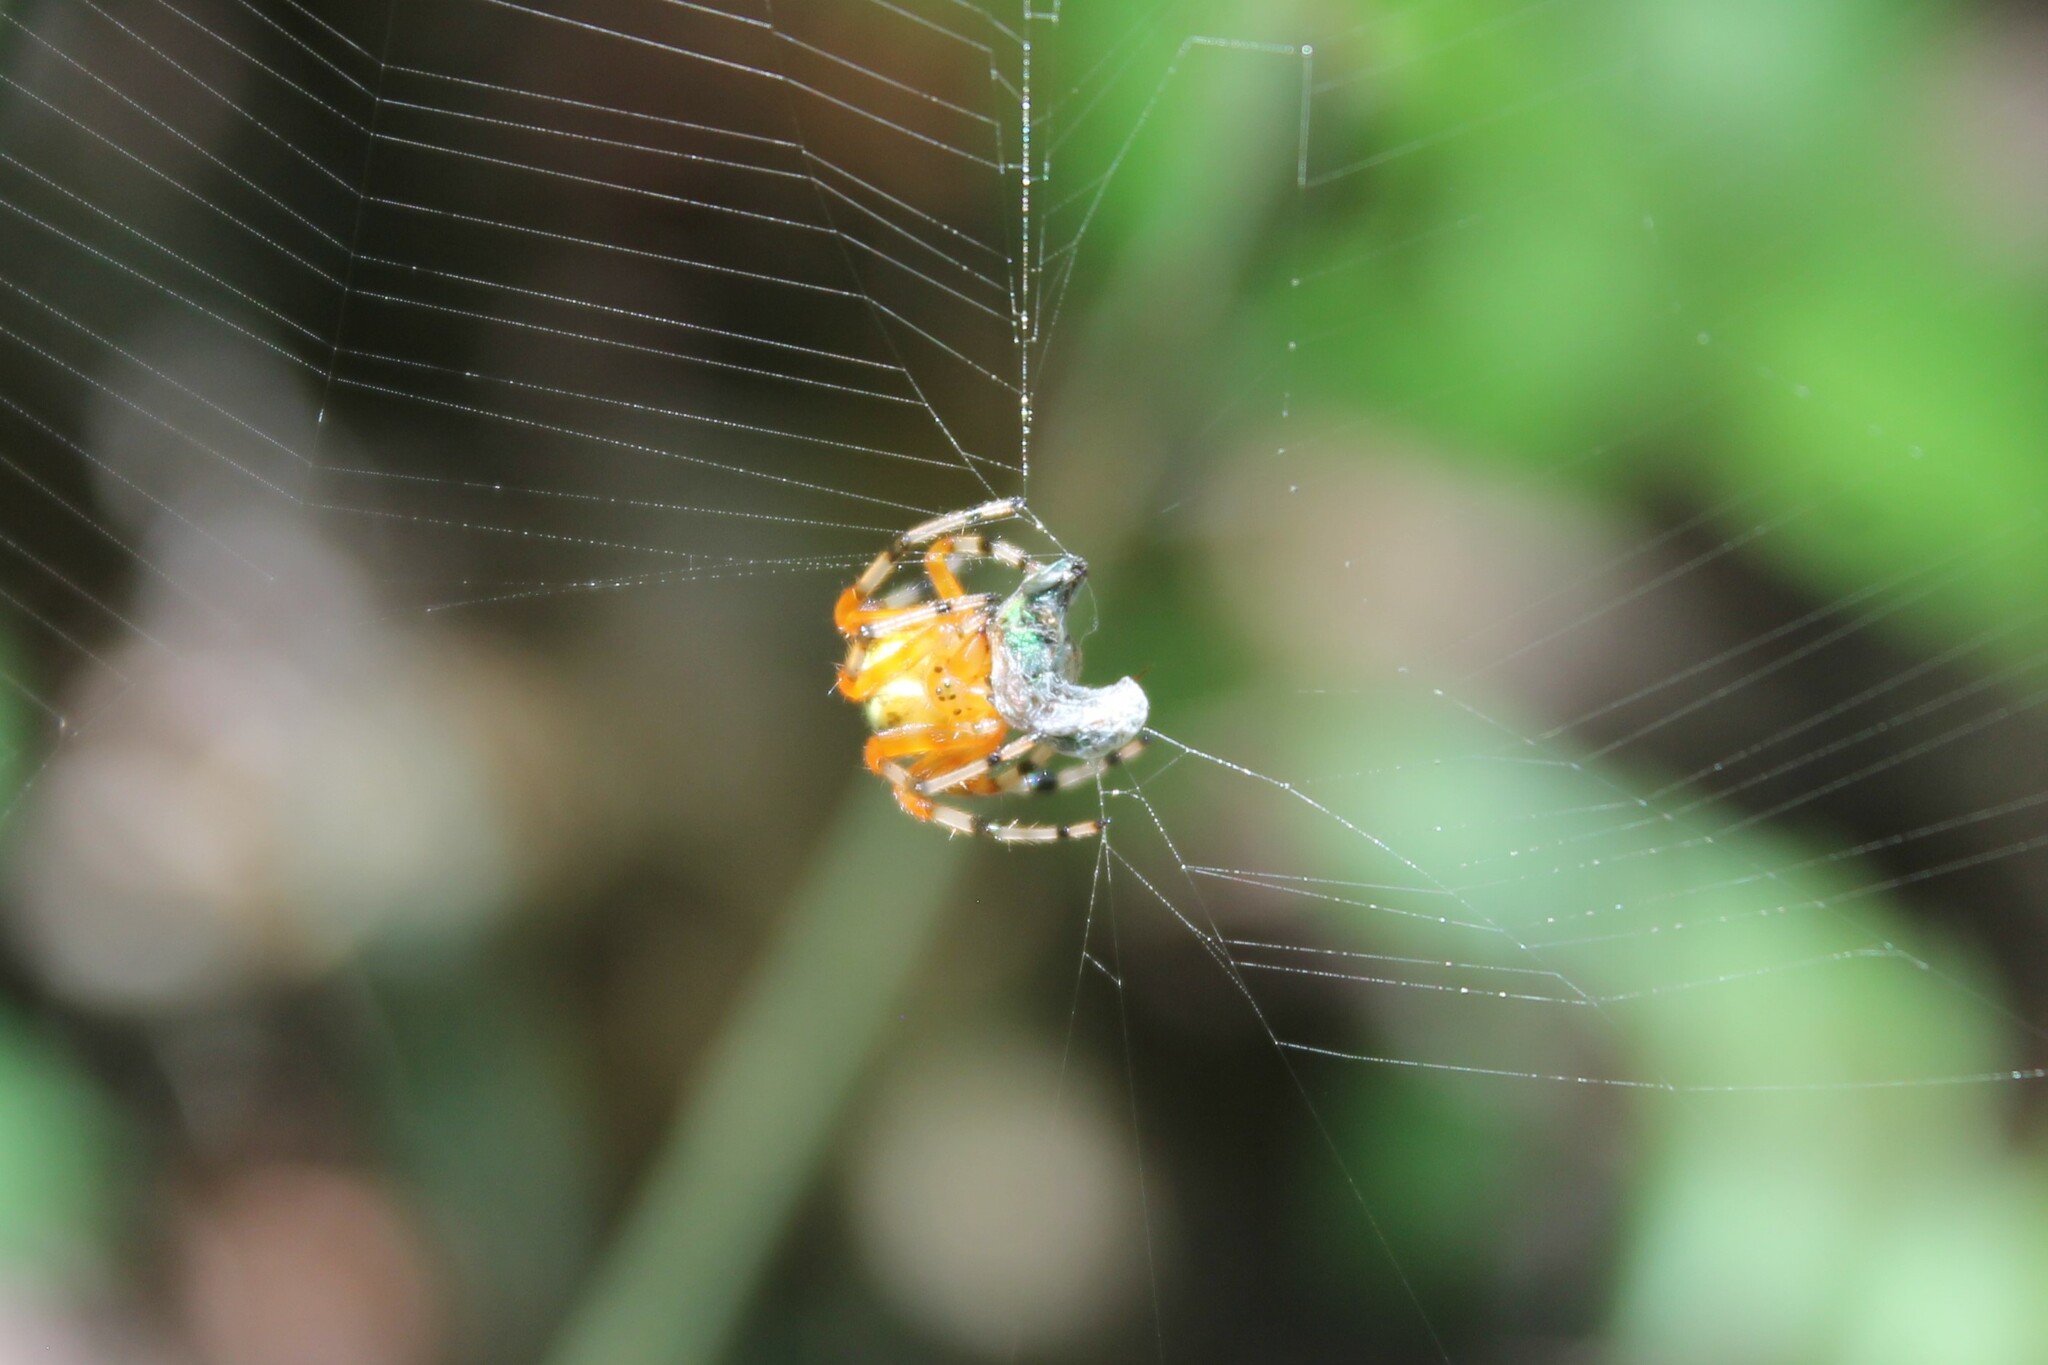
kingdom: Animalia
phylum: Arthropoda
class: Arachnida
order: Araneae
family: Araneidae
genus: Araneus
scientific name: Araneus marmoreus
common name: Marbled orbweaver
